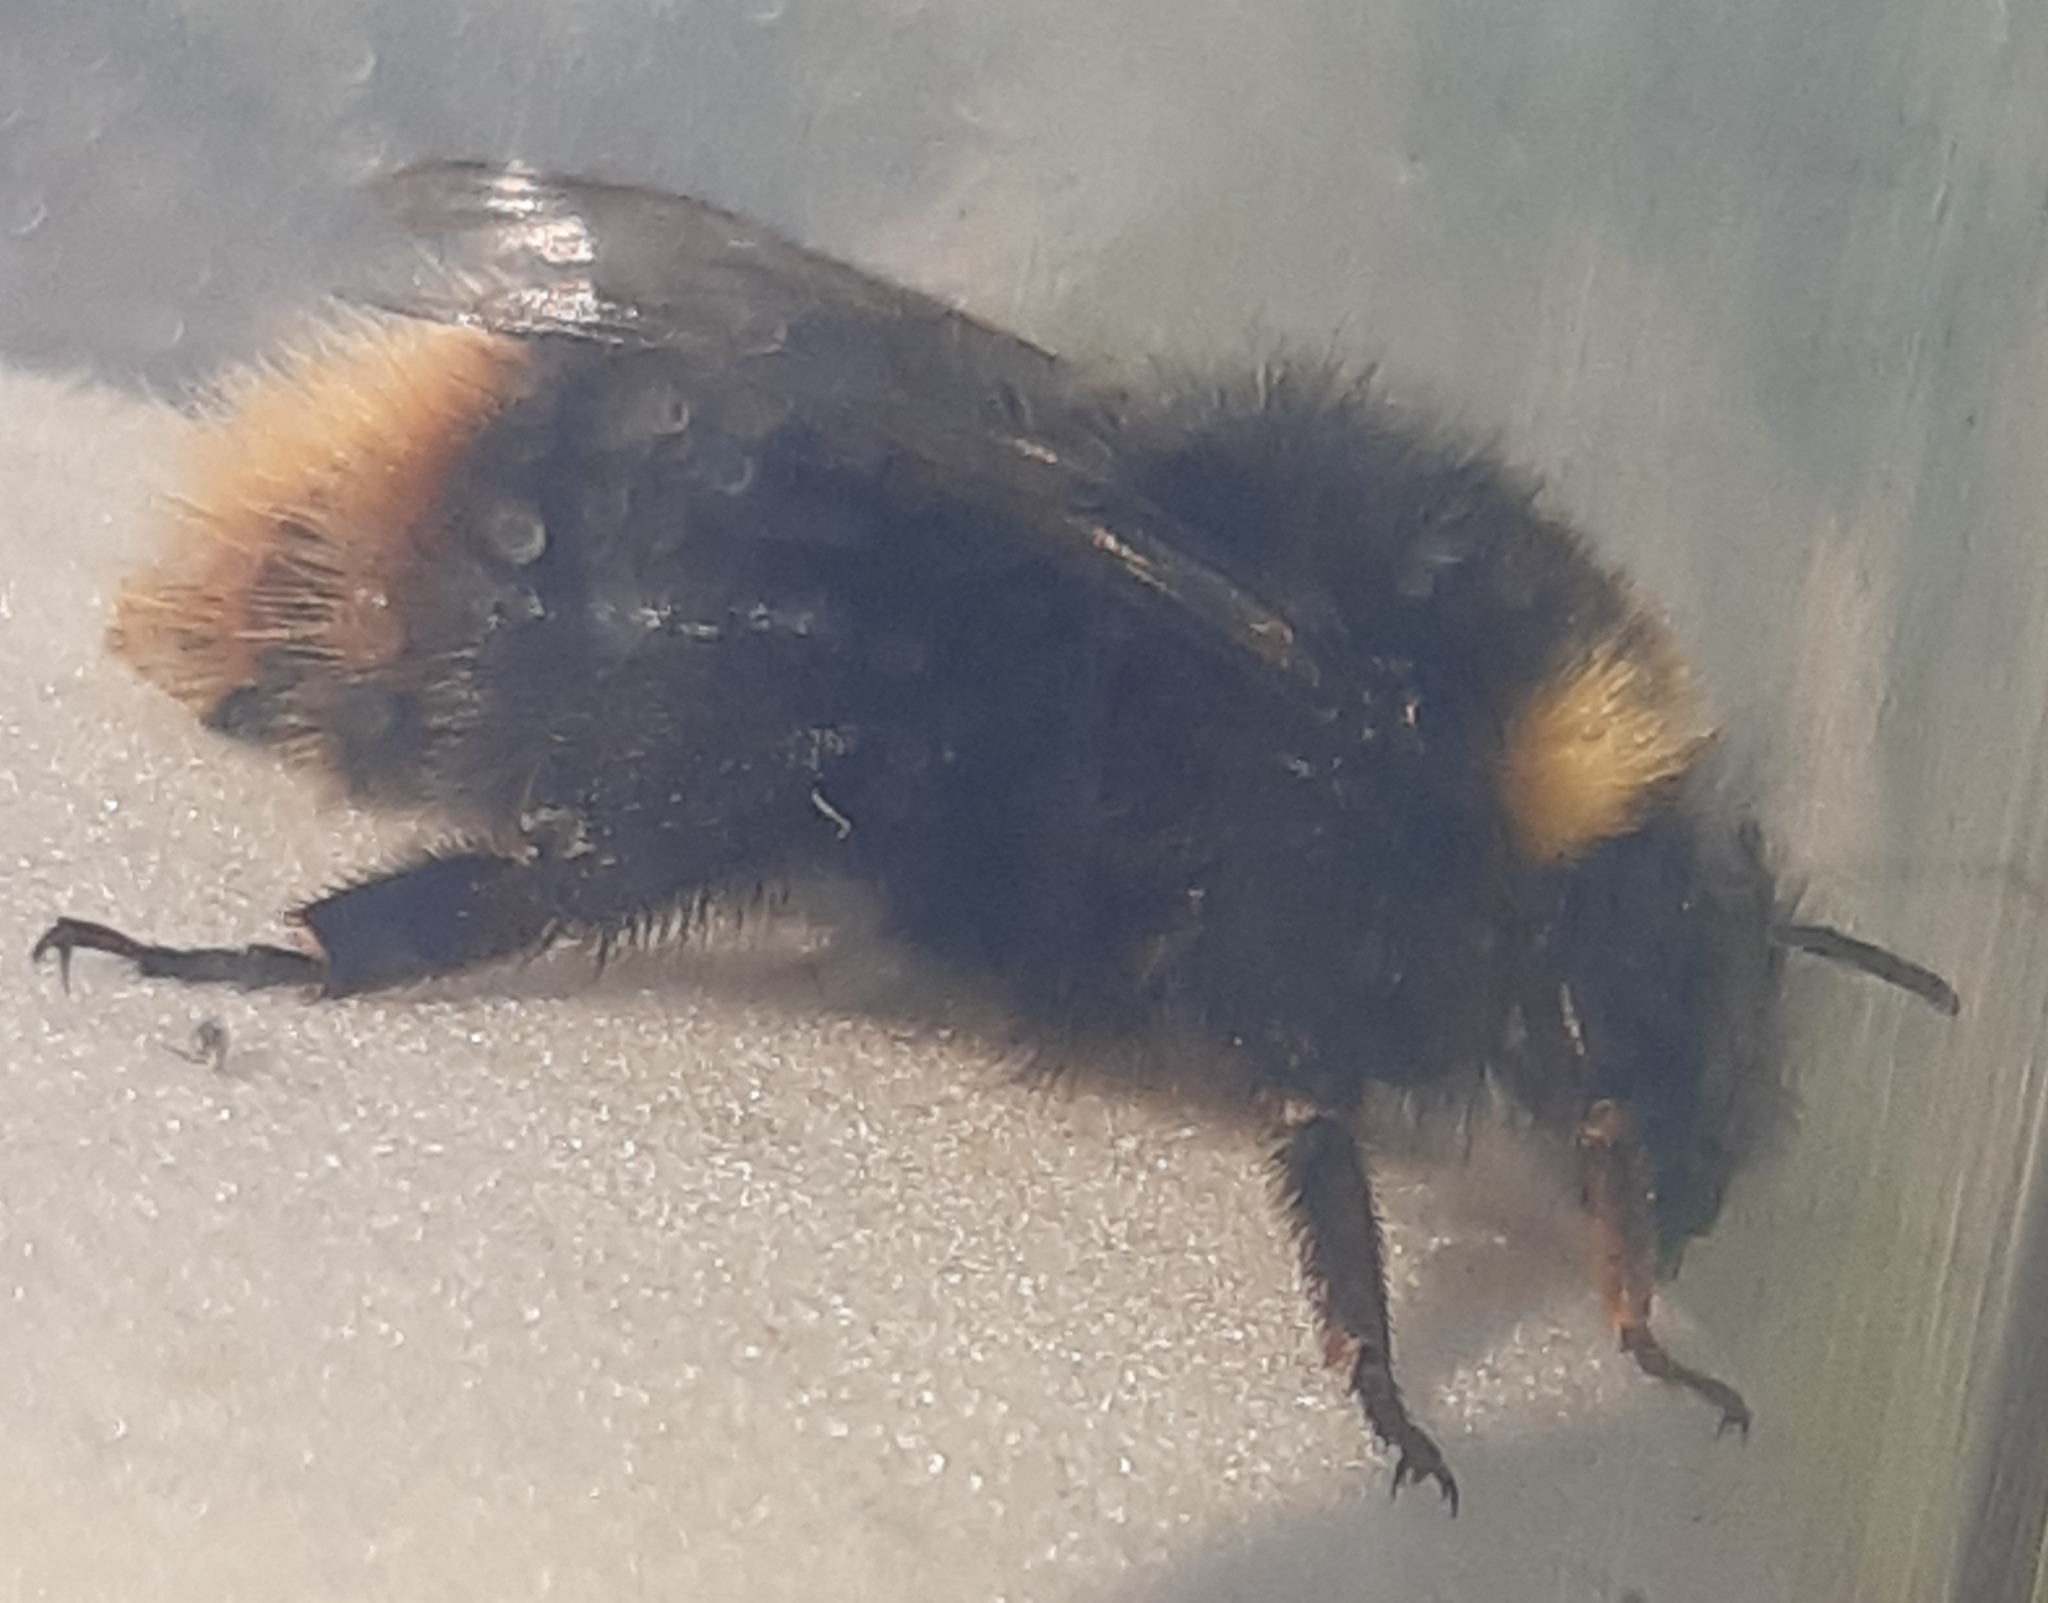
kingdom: Animalia
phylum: Arthropoda
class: Insecta
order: Hymenoptera
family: Apidae
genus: Bombus
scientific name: Bombus pratorum
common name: Early humble-bee
